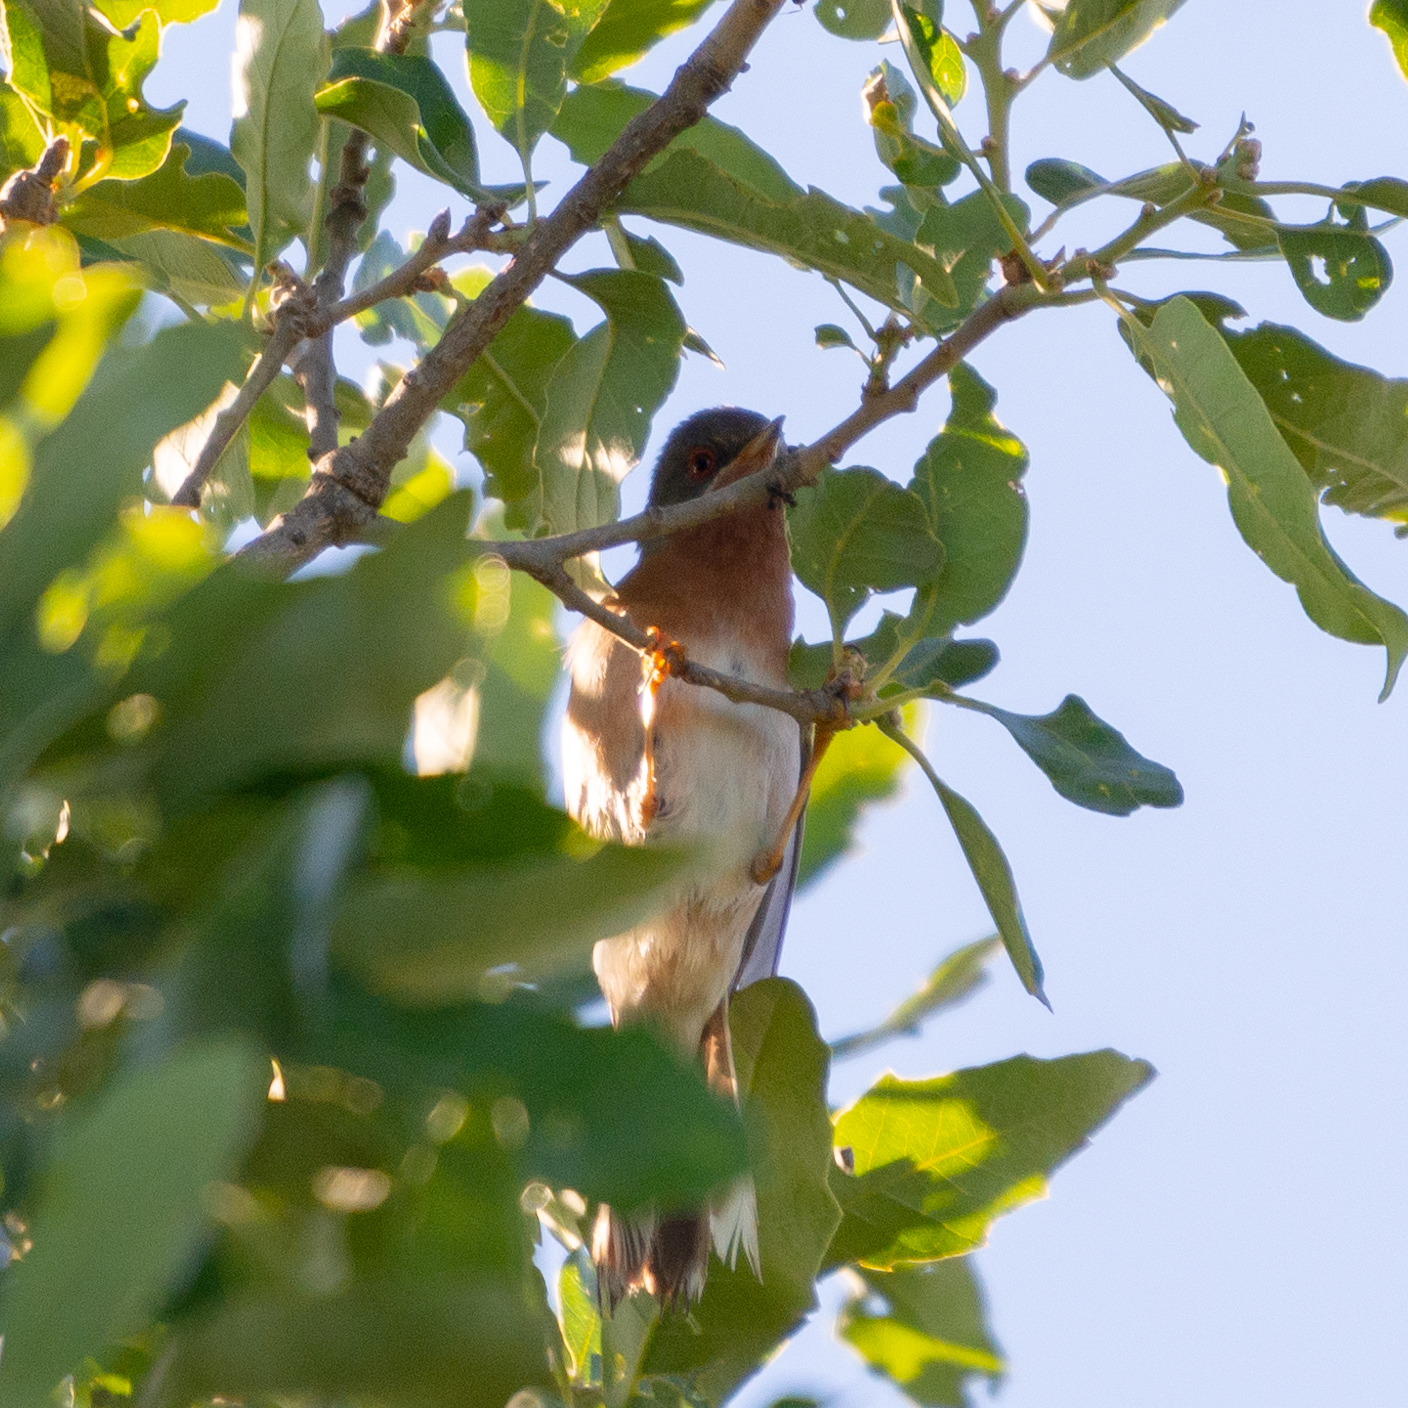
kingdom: Animalia
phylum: Chordata
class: Aves
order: Passeriformes
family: Sylviidae
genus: Curruca
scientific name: Curruca iberiae
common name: Western subalpine warbler
